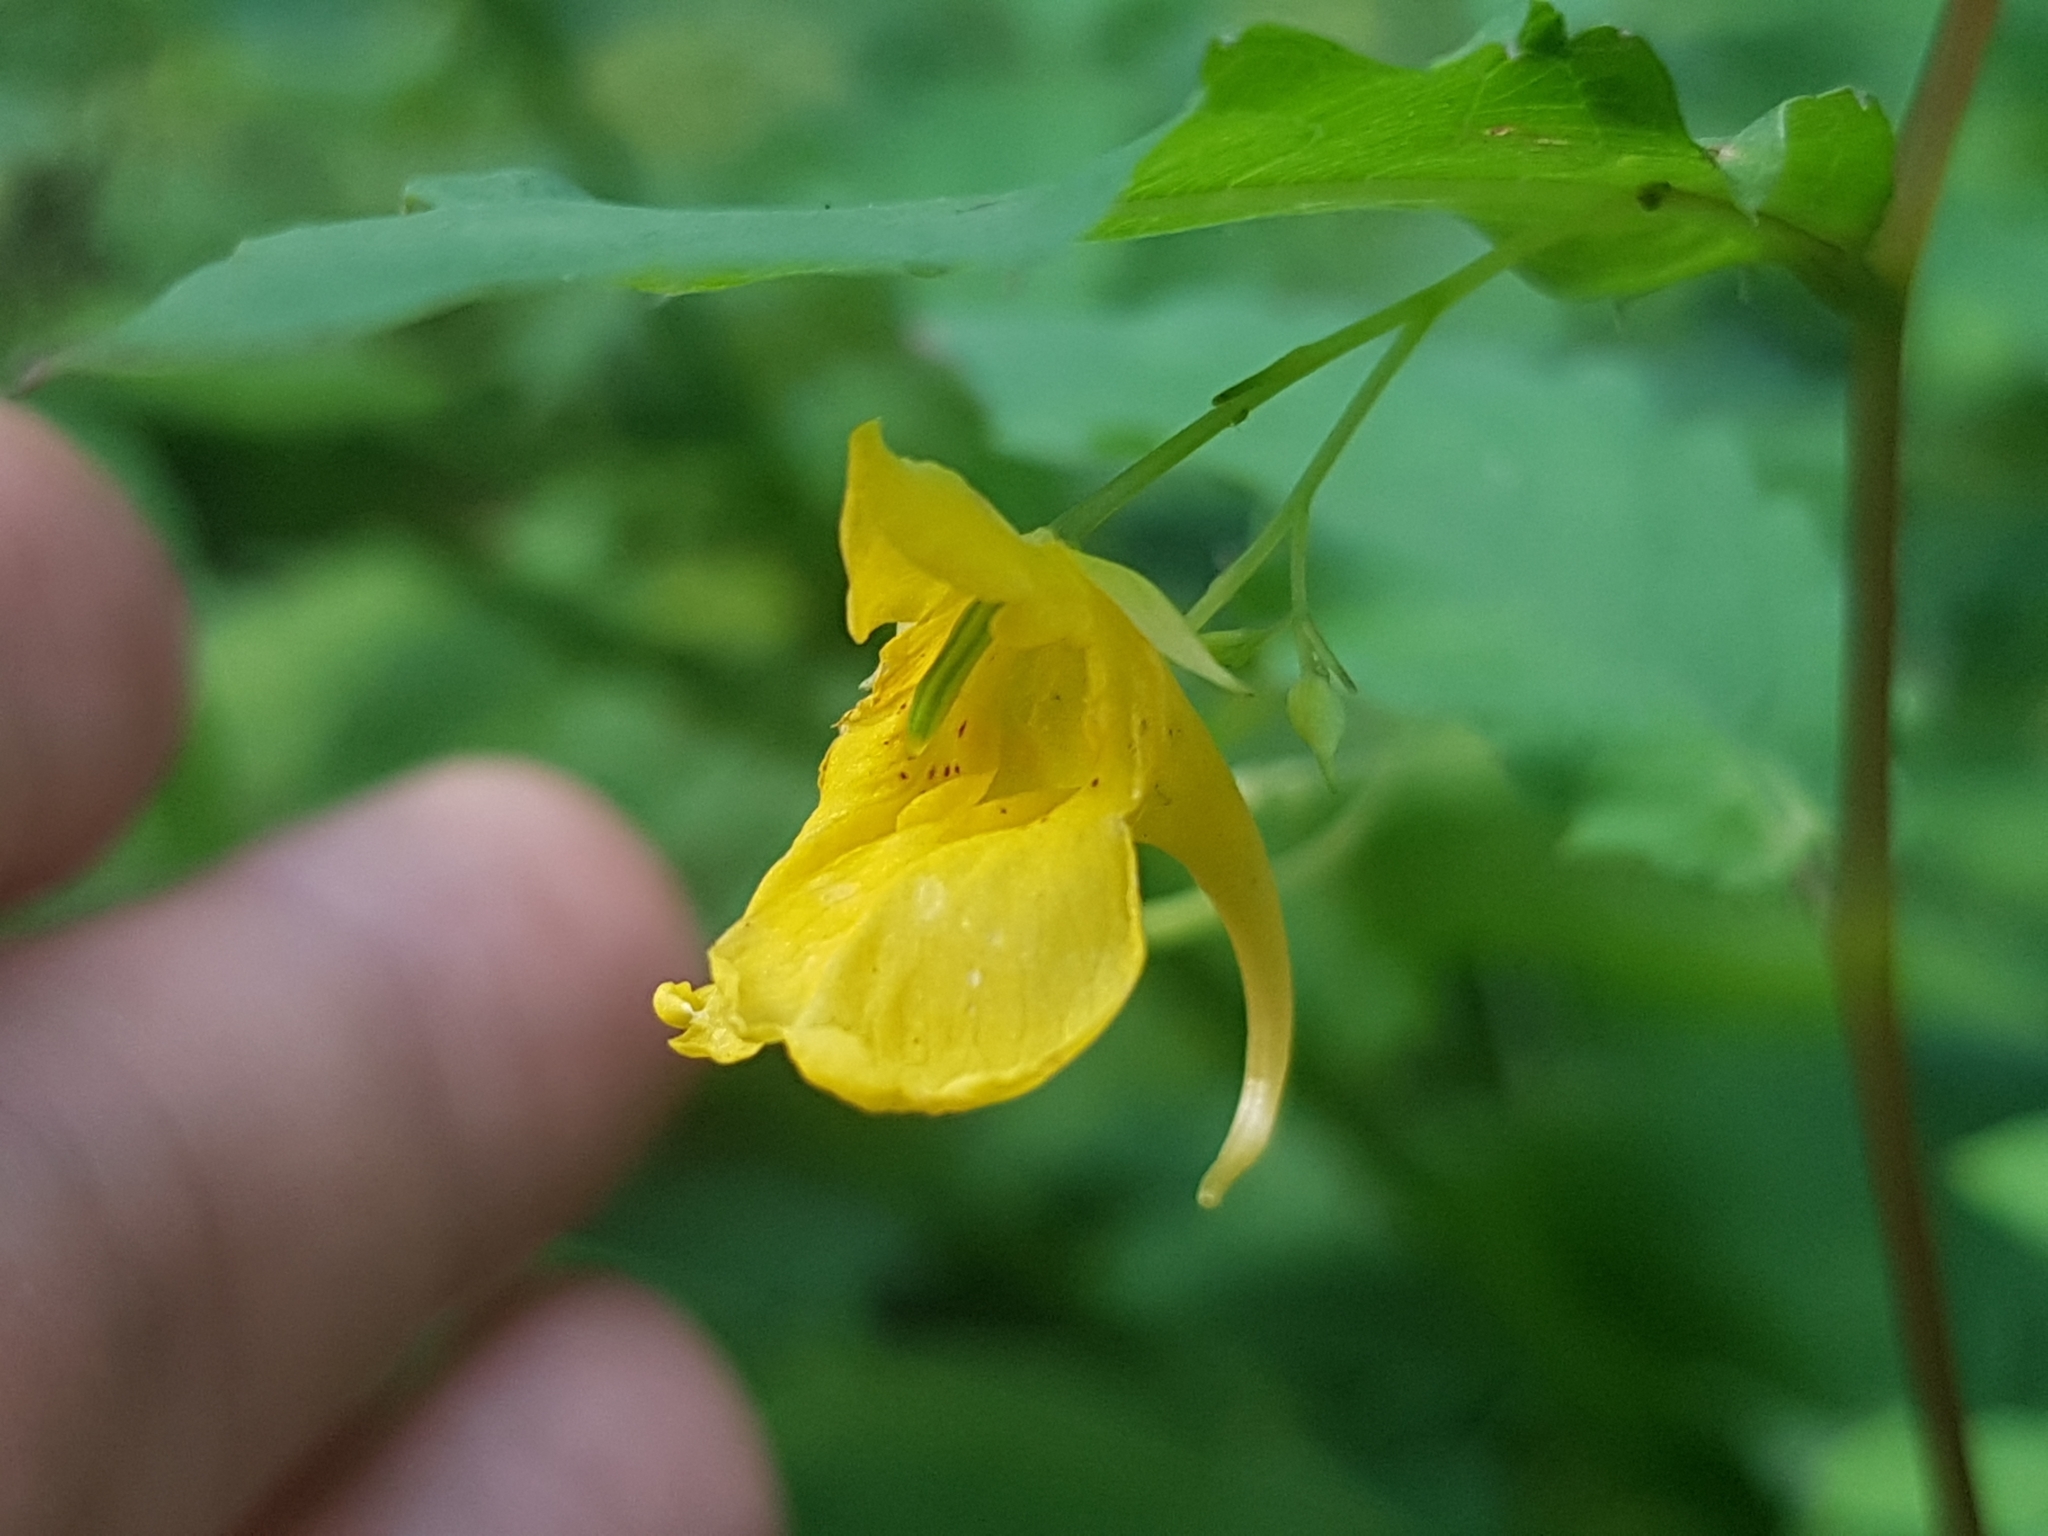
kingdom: Plantae
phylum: Tracheophyta
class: Magnoliopsida
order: Ericales
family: Balsaminaceae
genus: Impatiens
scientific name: Impatiens noli-tangere
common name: Touch-me-not balsam
